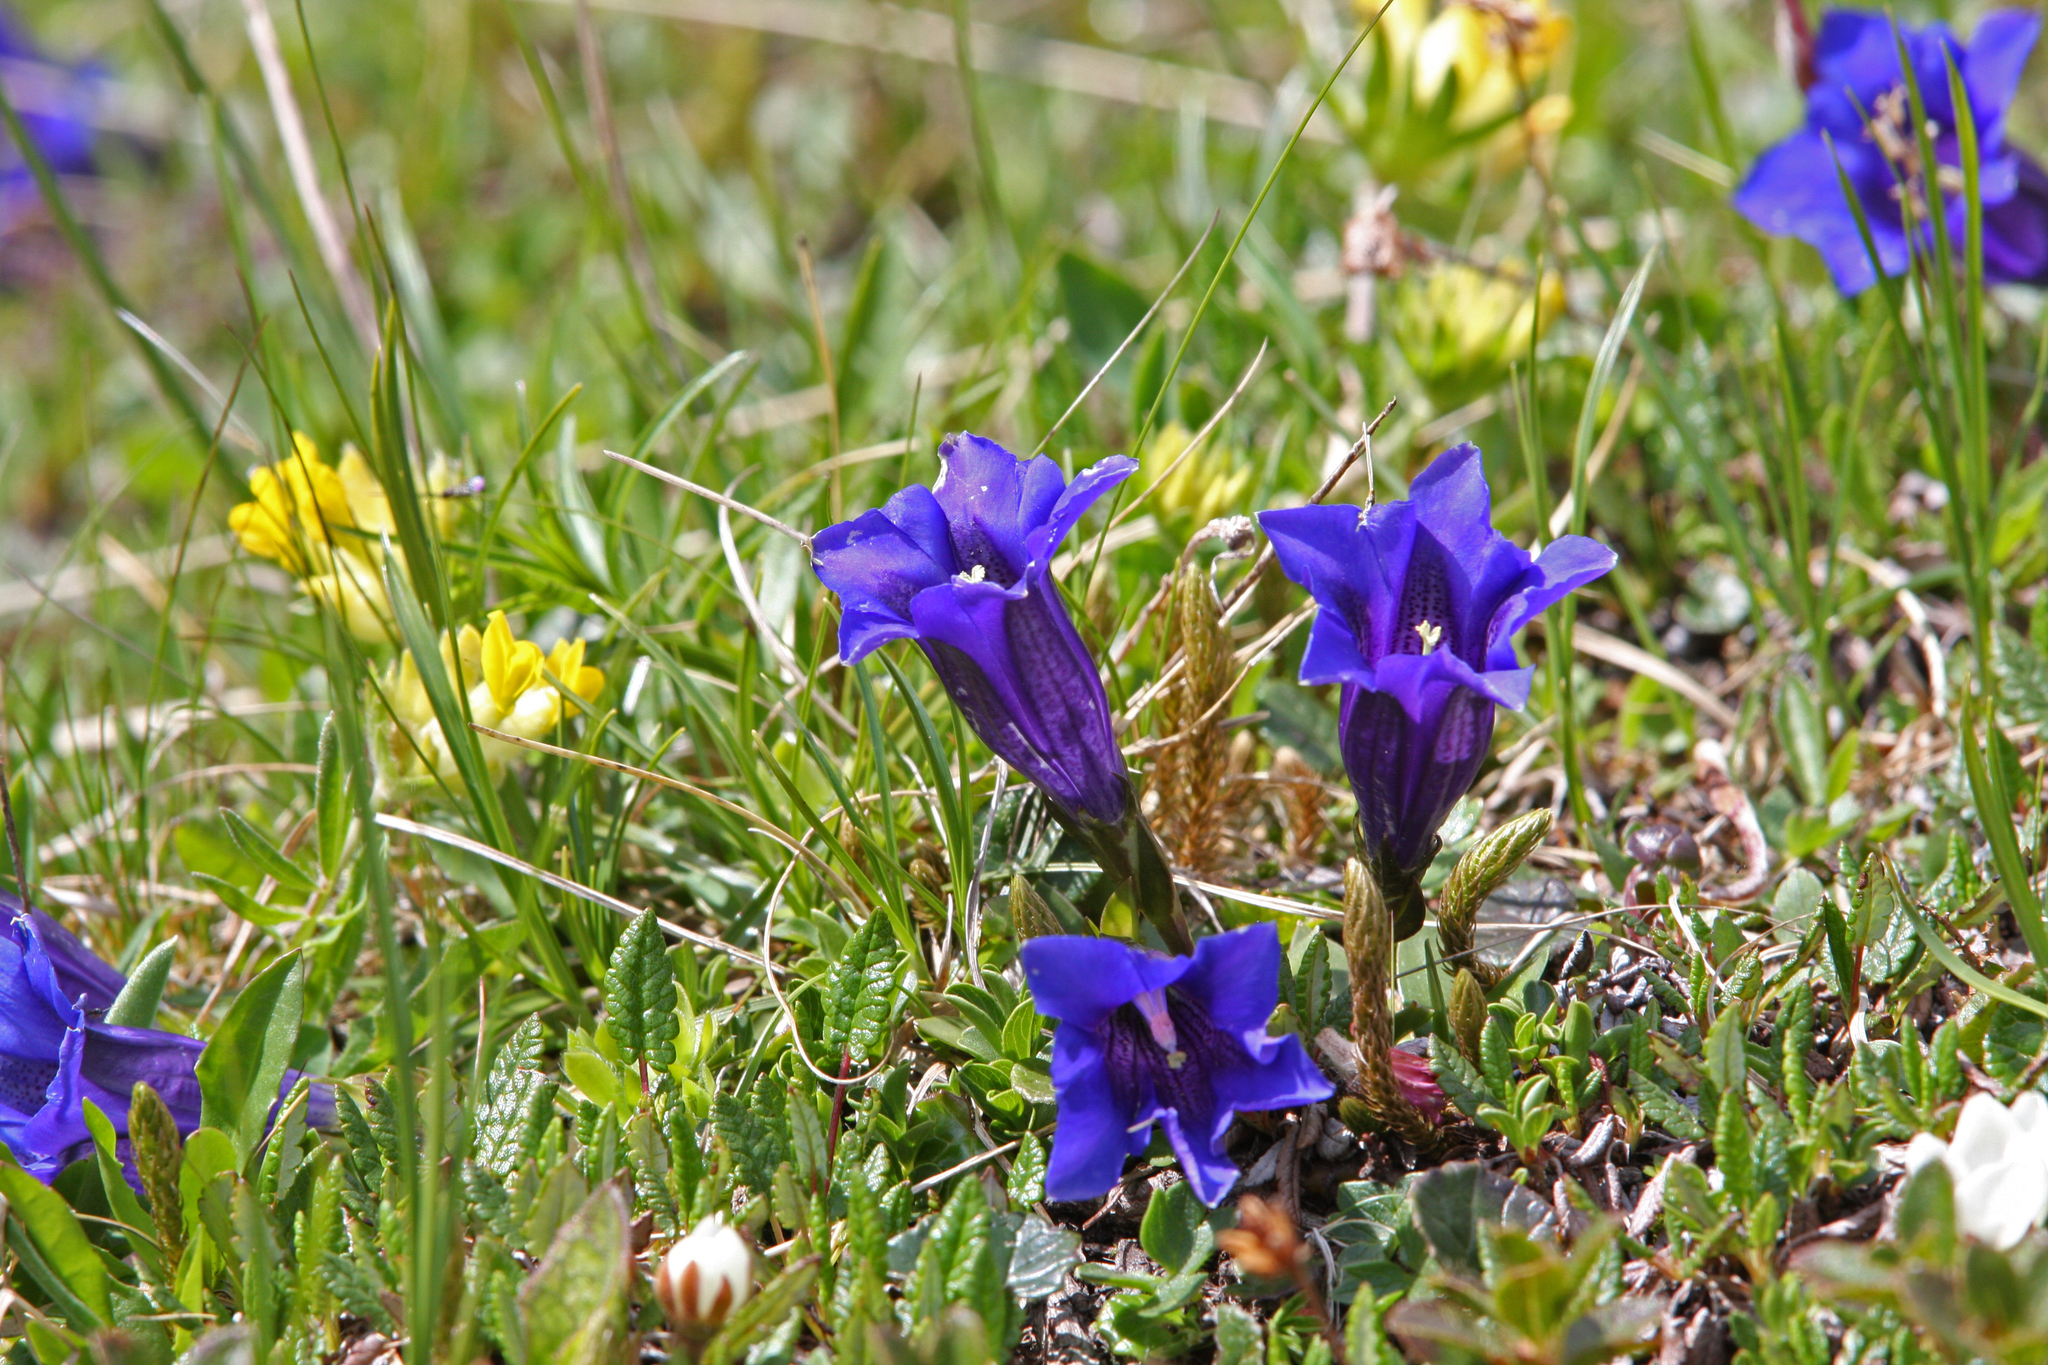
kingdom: Plantae
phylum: Tracheophyta
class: Magnoliopsida
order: Gentianales
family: Gentianaceae
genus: Gentiana
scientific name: Gentiana acaulis
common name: Trumpet gentian
